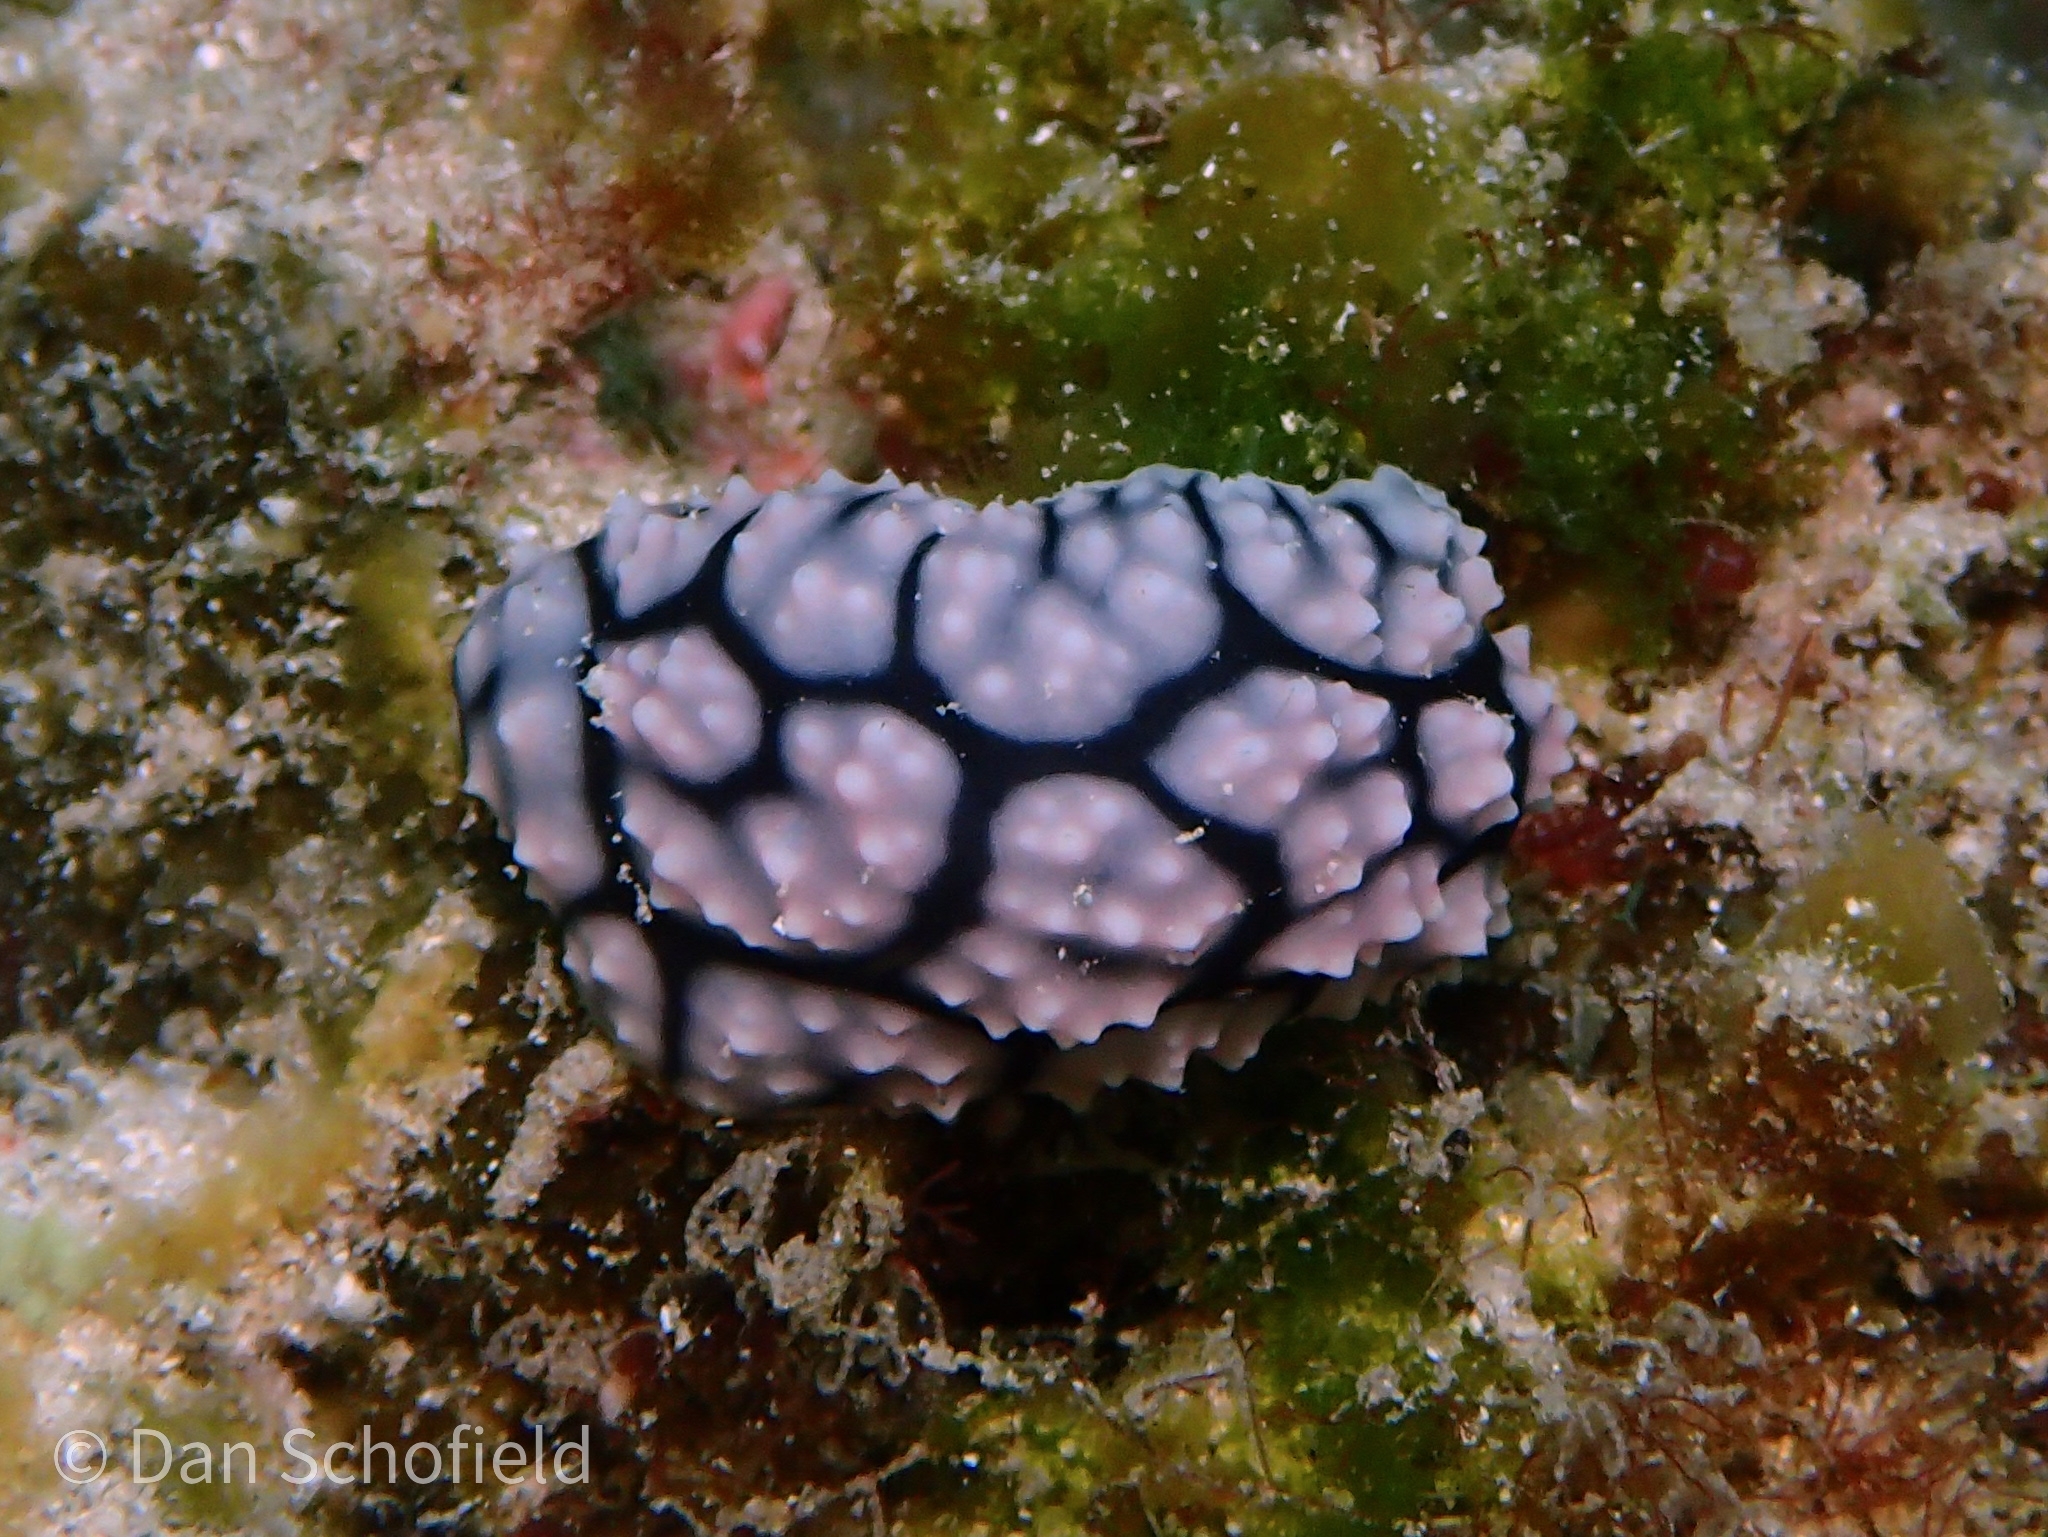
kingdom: Animalia
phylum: Mollusca
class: Gastropoda
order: Nudibranchia
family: Phyllidiidae
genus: Phyllidiella
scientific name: Phyllidiella pustulosa
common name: Pustular phyllidia
